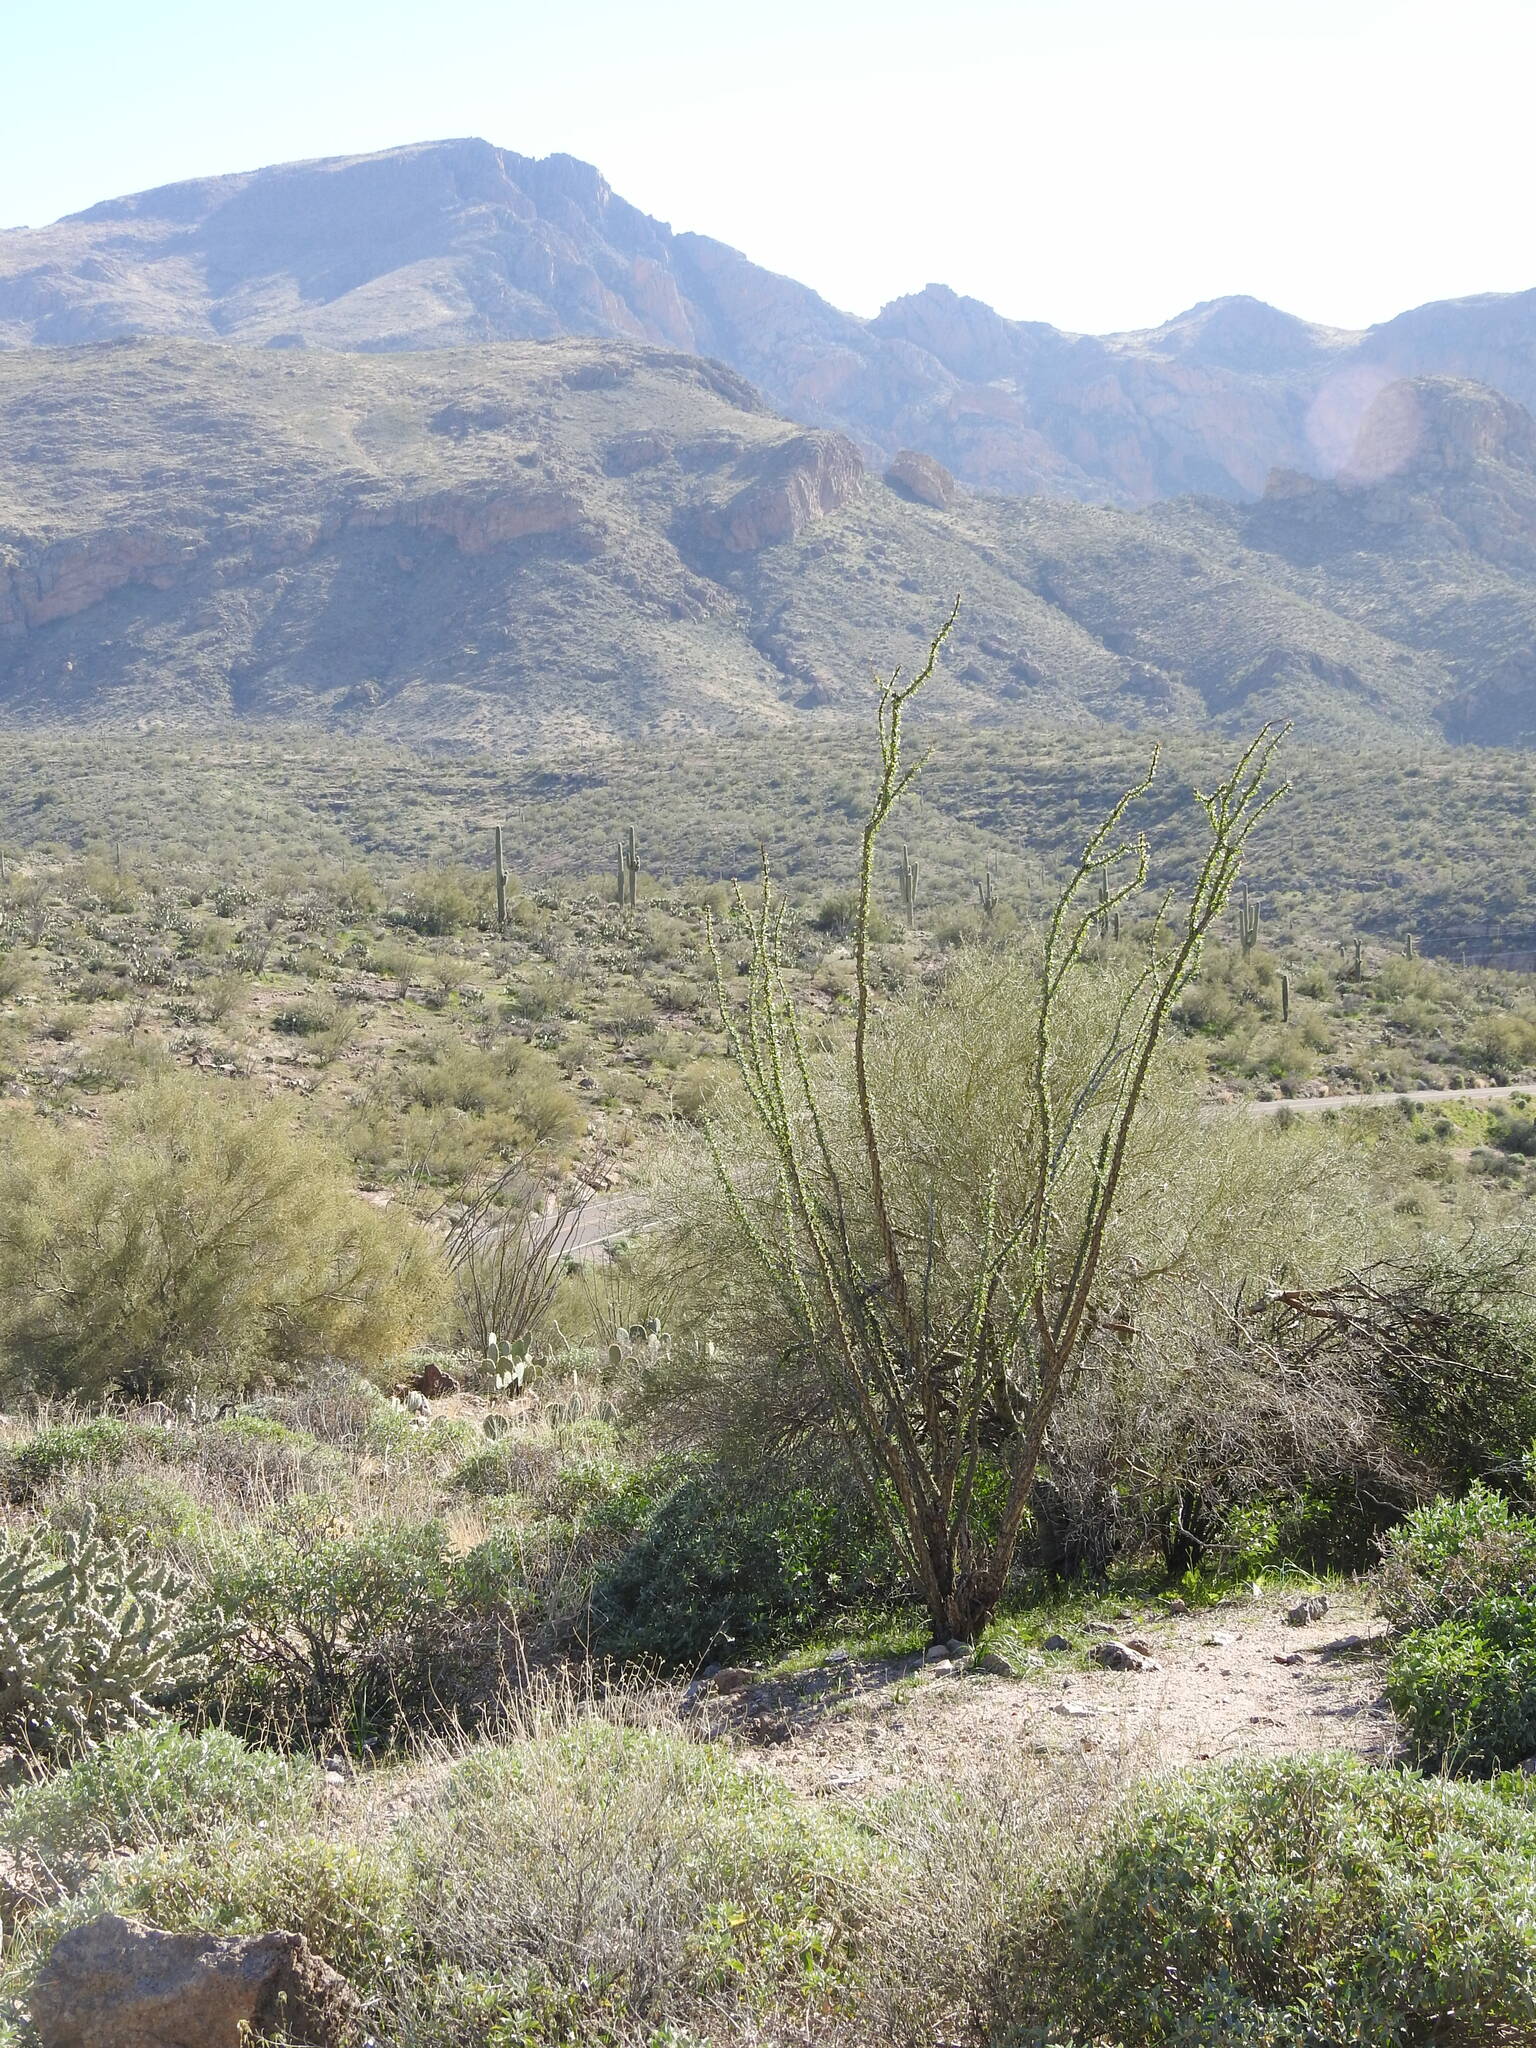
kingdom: Plantae
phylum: Tracheophyta
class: Magnoliopsida
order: Ericales
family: Fouquieriaceae
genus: Fouquieria
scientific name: Fouquieria splendens
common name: Vine-cactus
